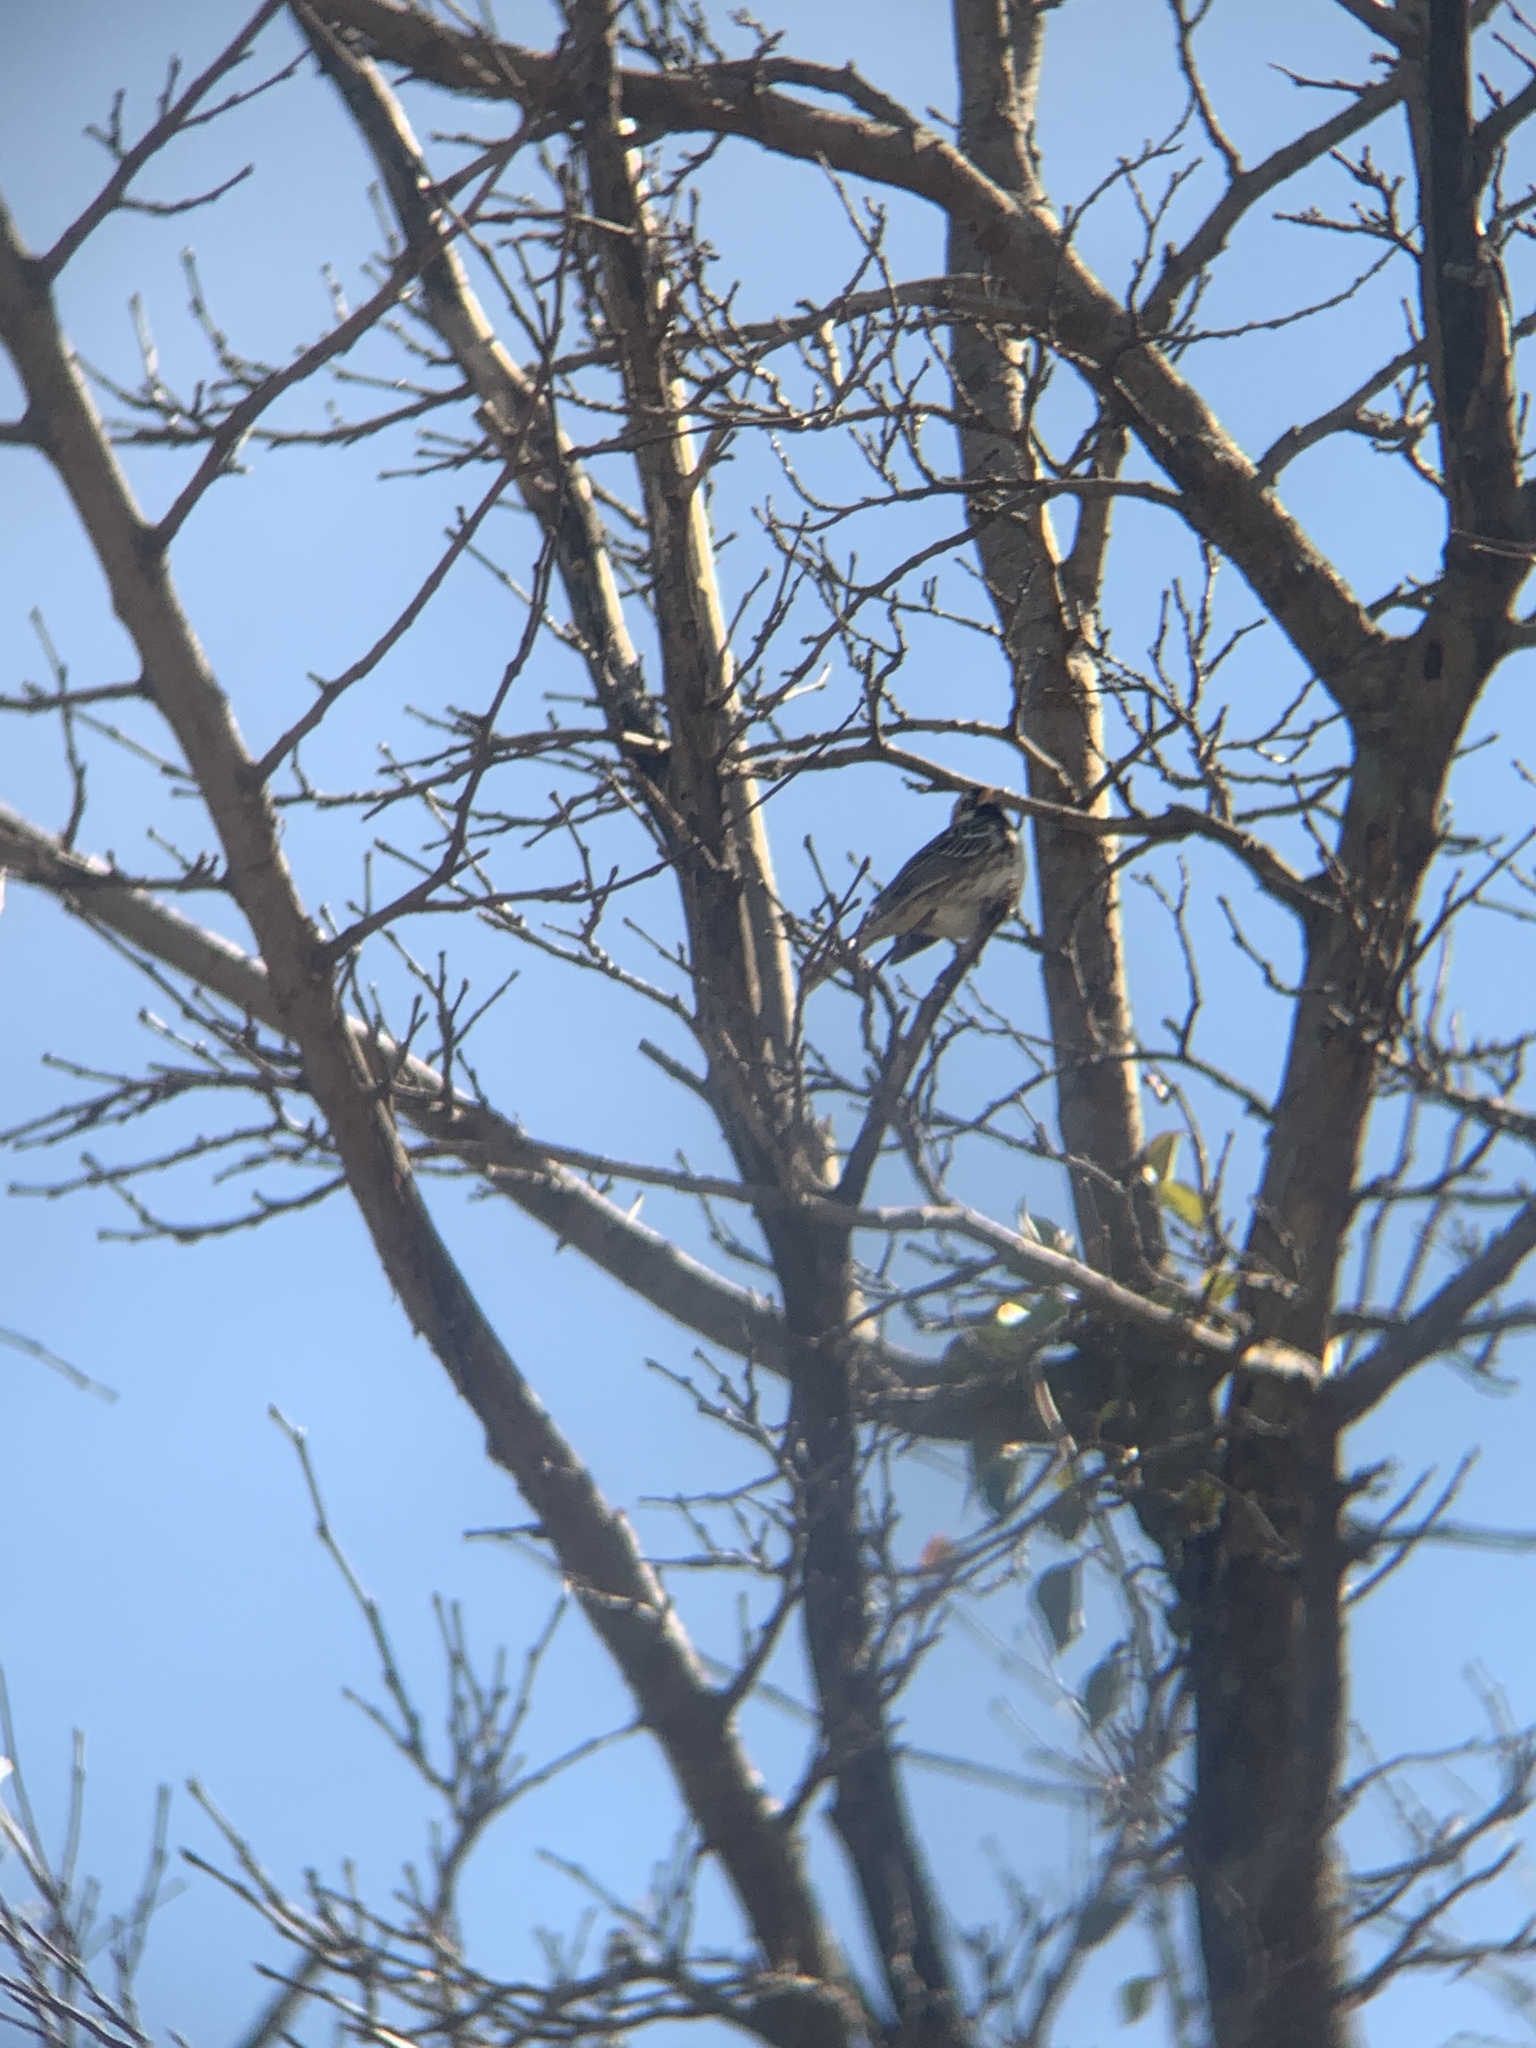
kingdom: Animalia
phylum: Chordata
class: Aves
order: Passeriformes
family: Passerellidae
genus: Zonotrichia
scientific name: Zonotrichia querula
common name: Harris's sparrow
